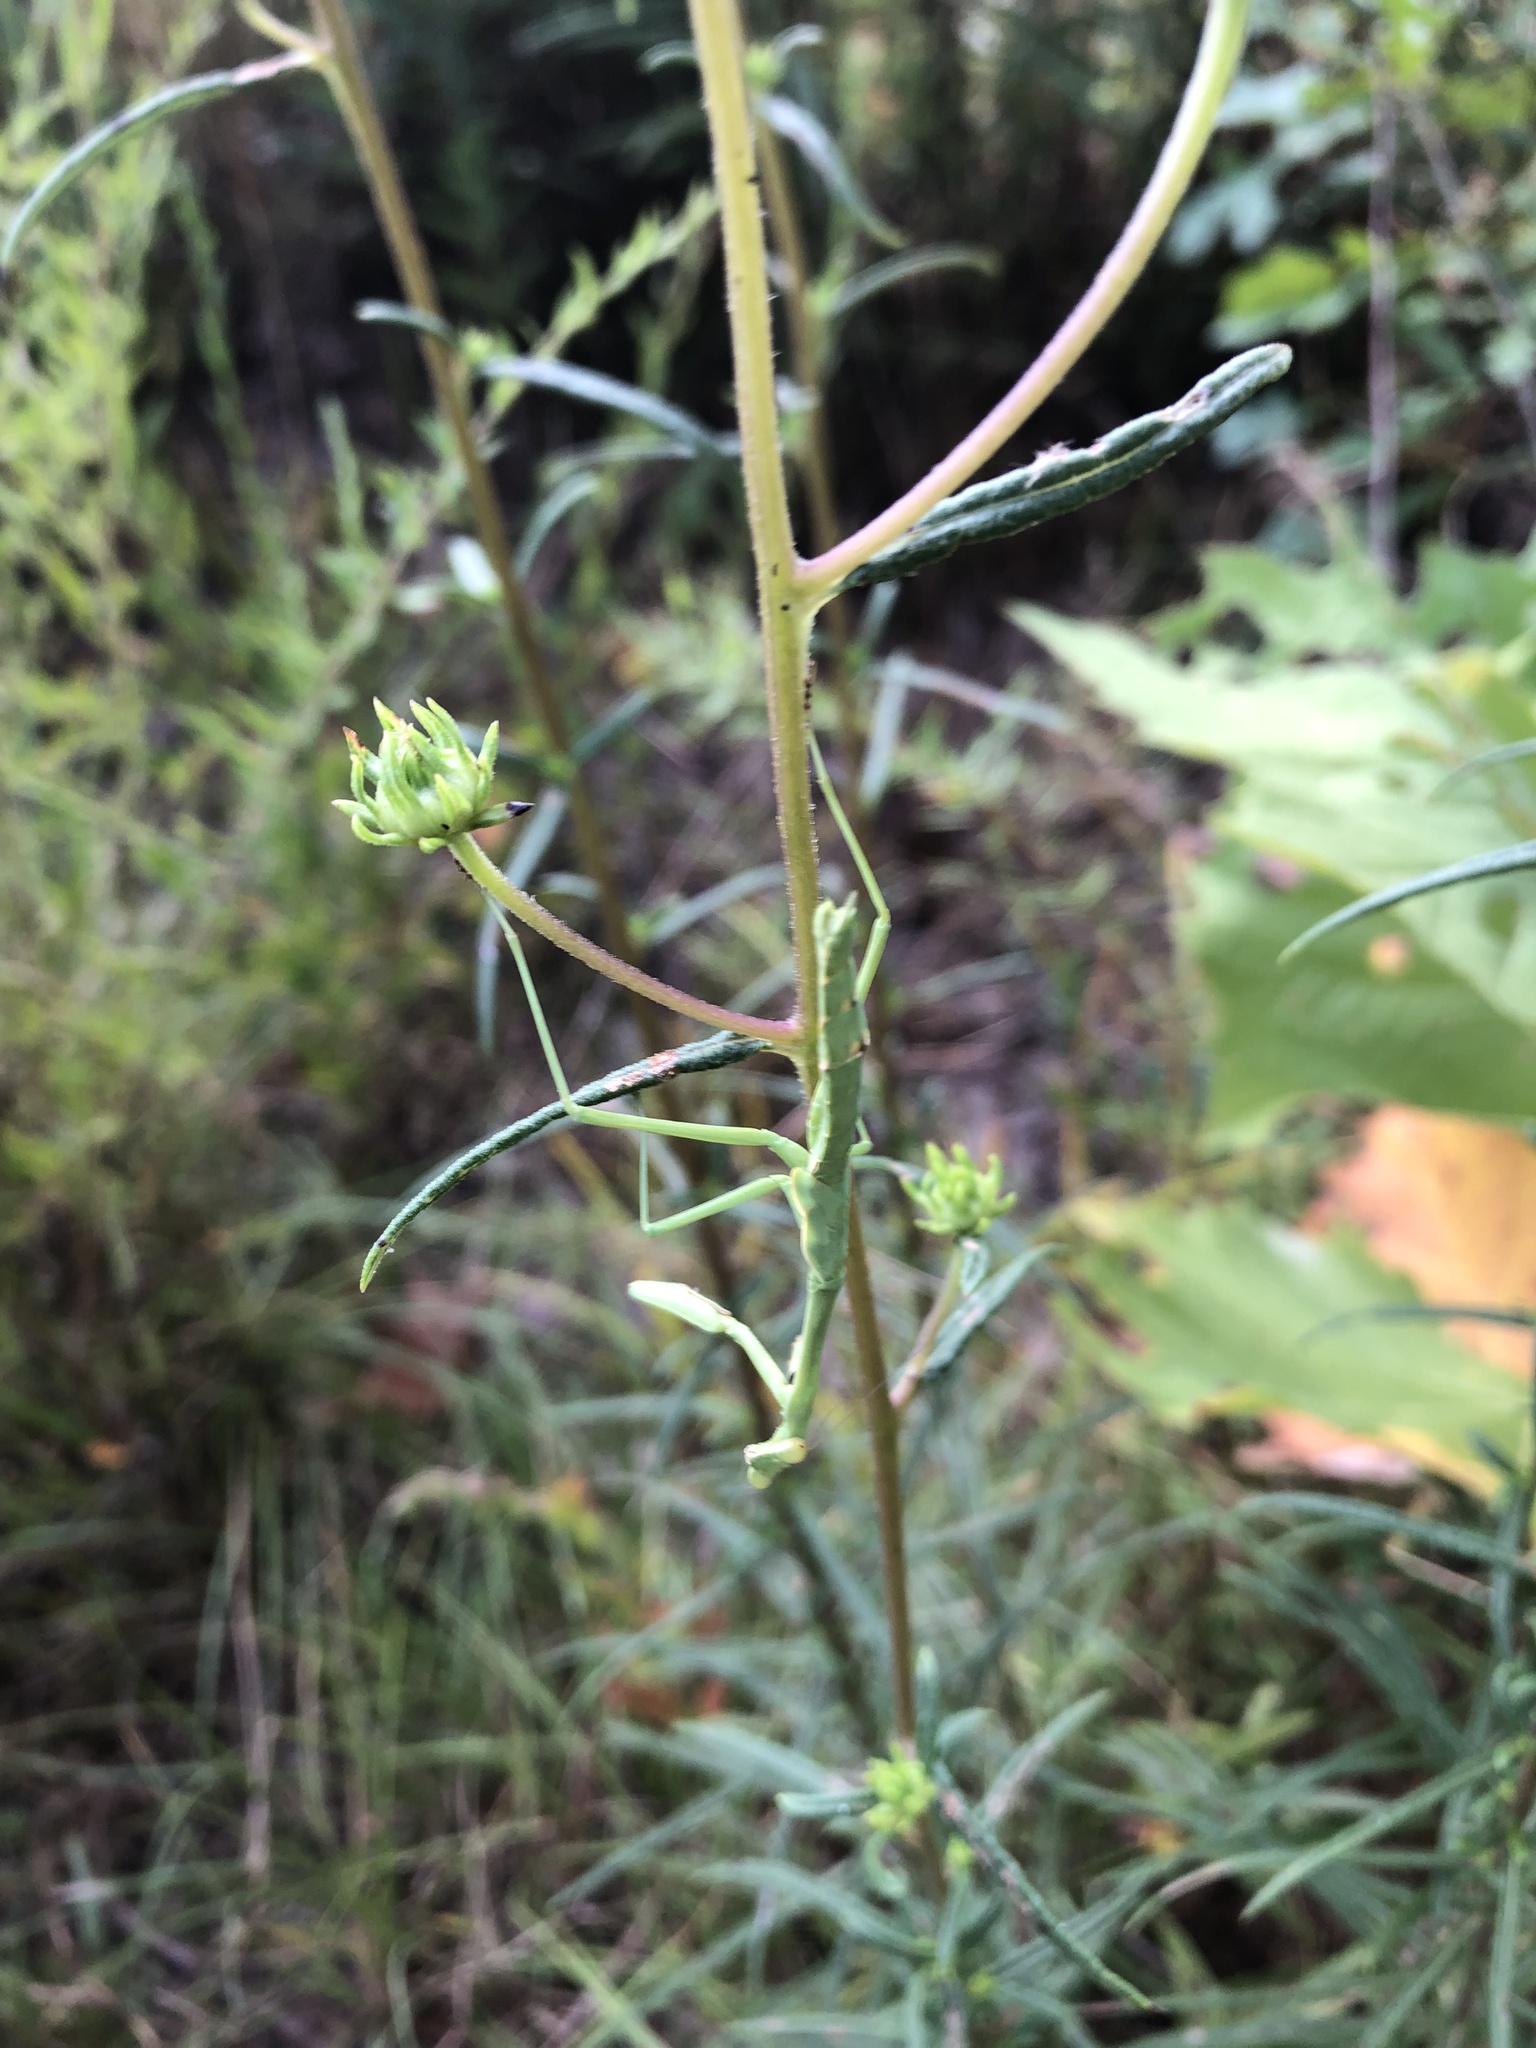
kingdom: Animalia
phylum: Arthropoda
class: Insecta
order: Mantodea
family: Mantidae
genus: Stagmomantis
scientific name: Stagmomantis carolina
